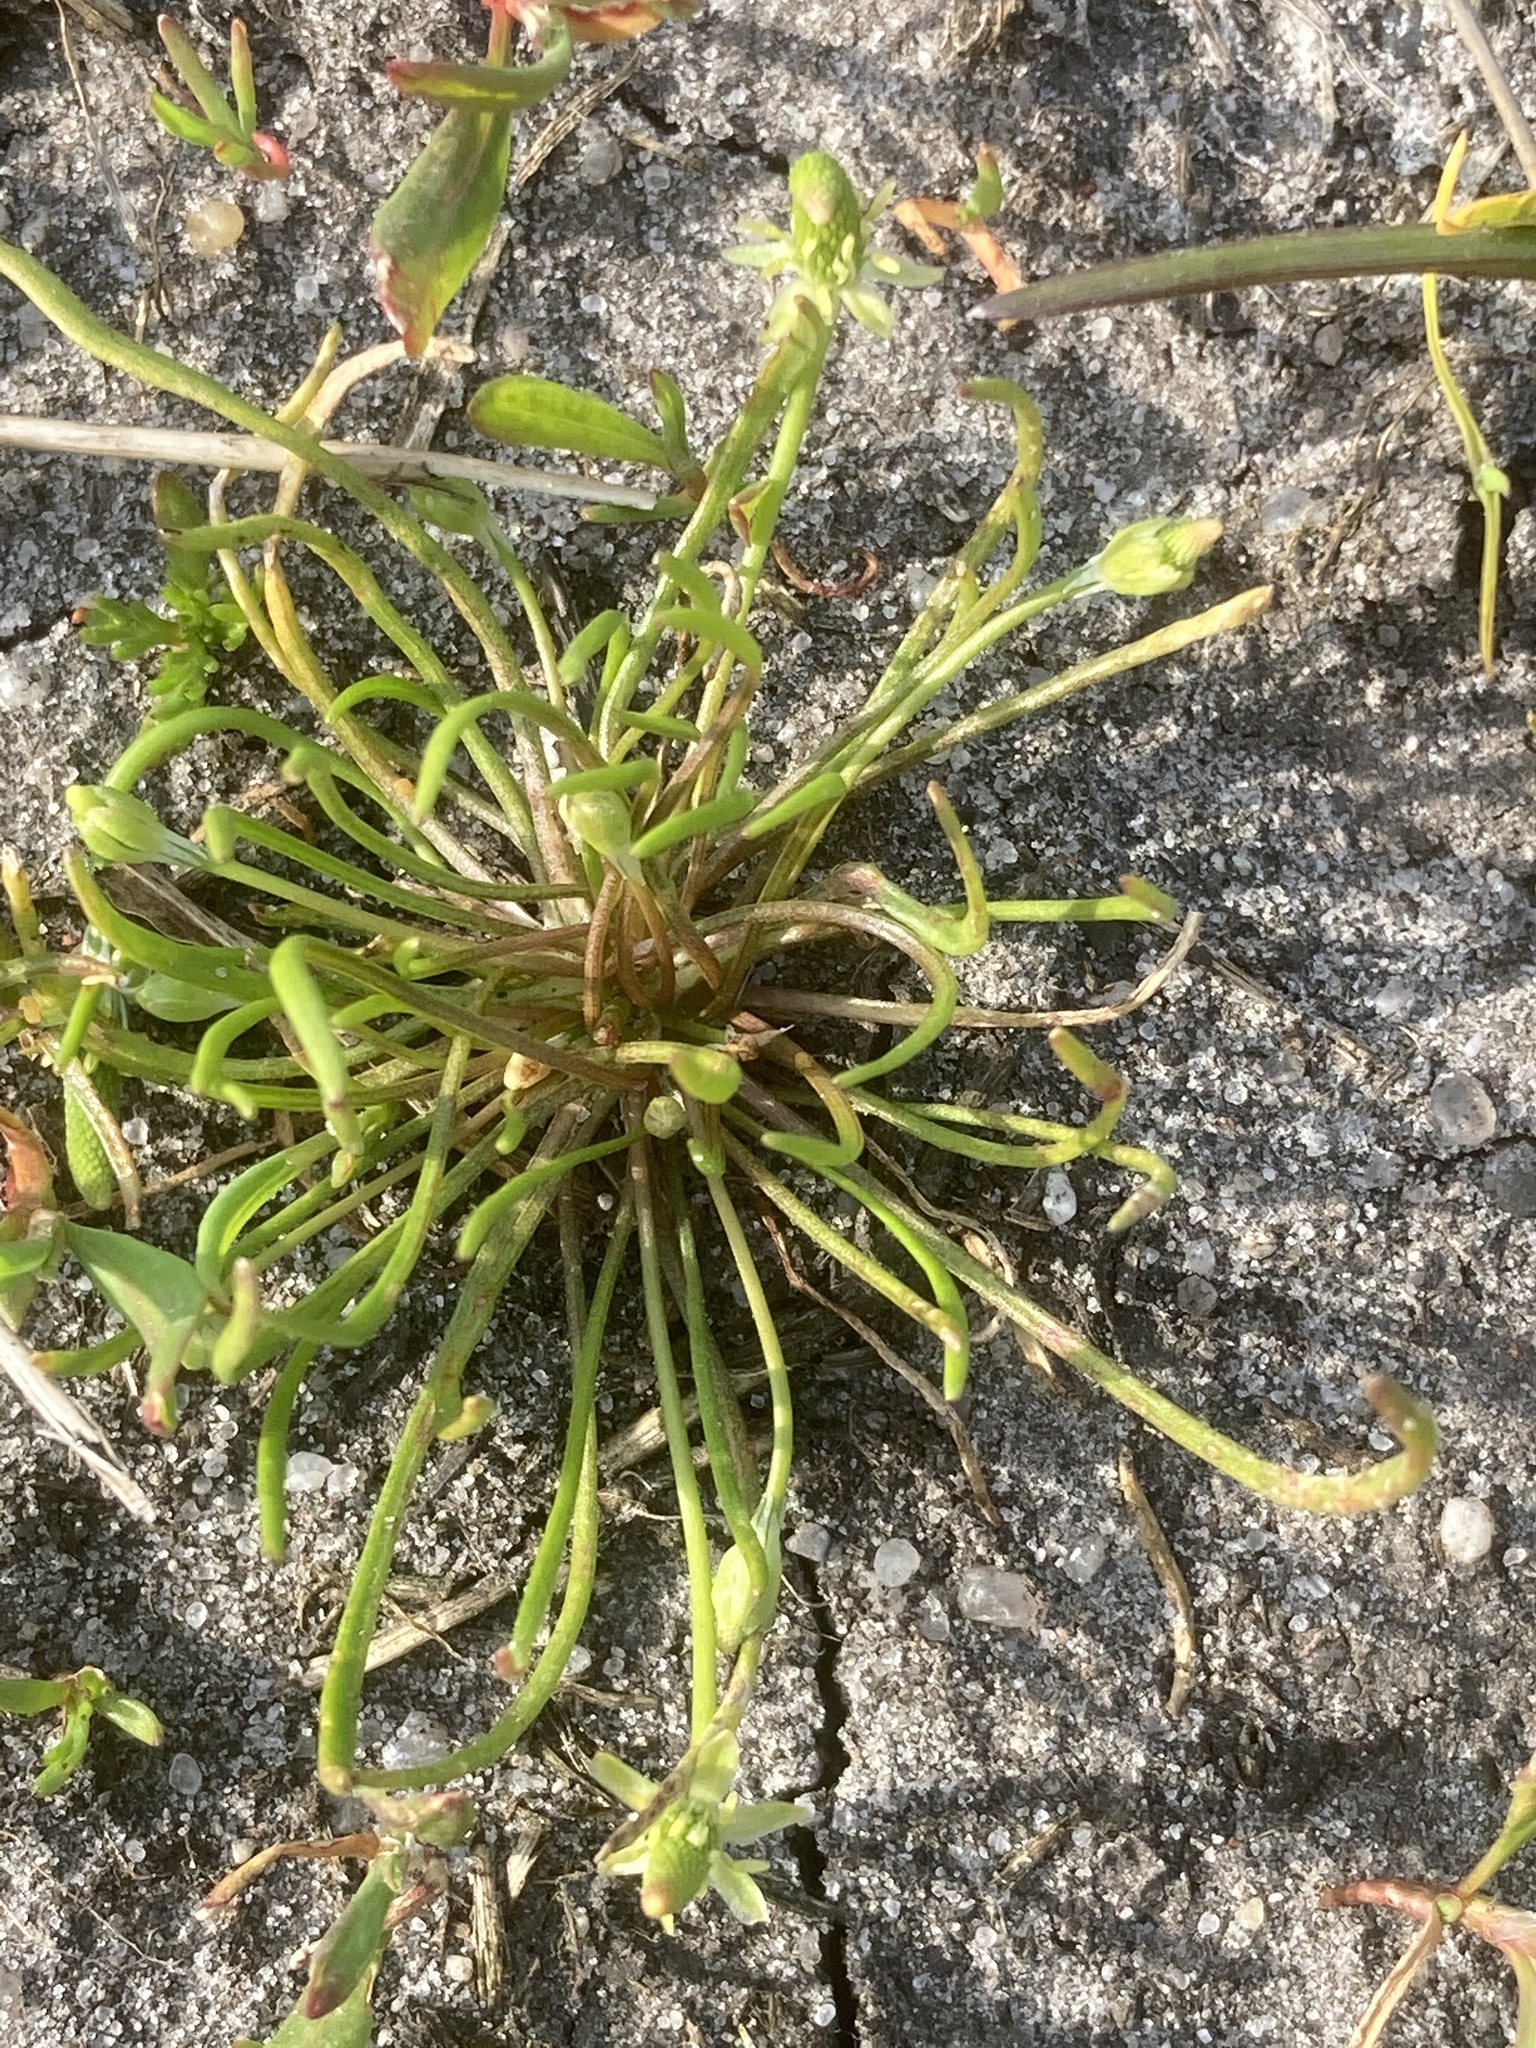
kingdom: Plantae
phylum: Tracheophyta
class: Magnoliopsida
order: Ranunculales
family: Ranunculaceae
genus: Myosurus
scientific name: Myosurus minimus
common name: Mousetail
